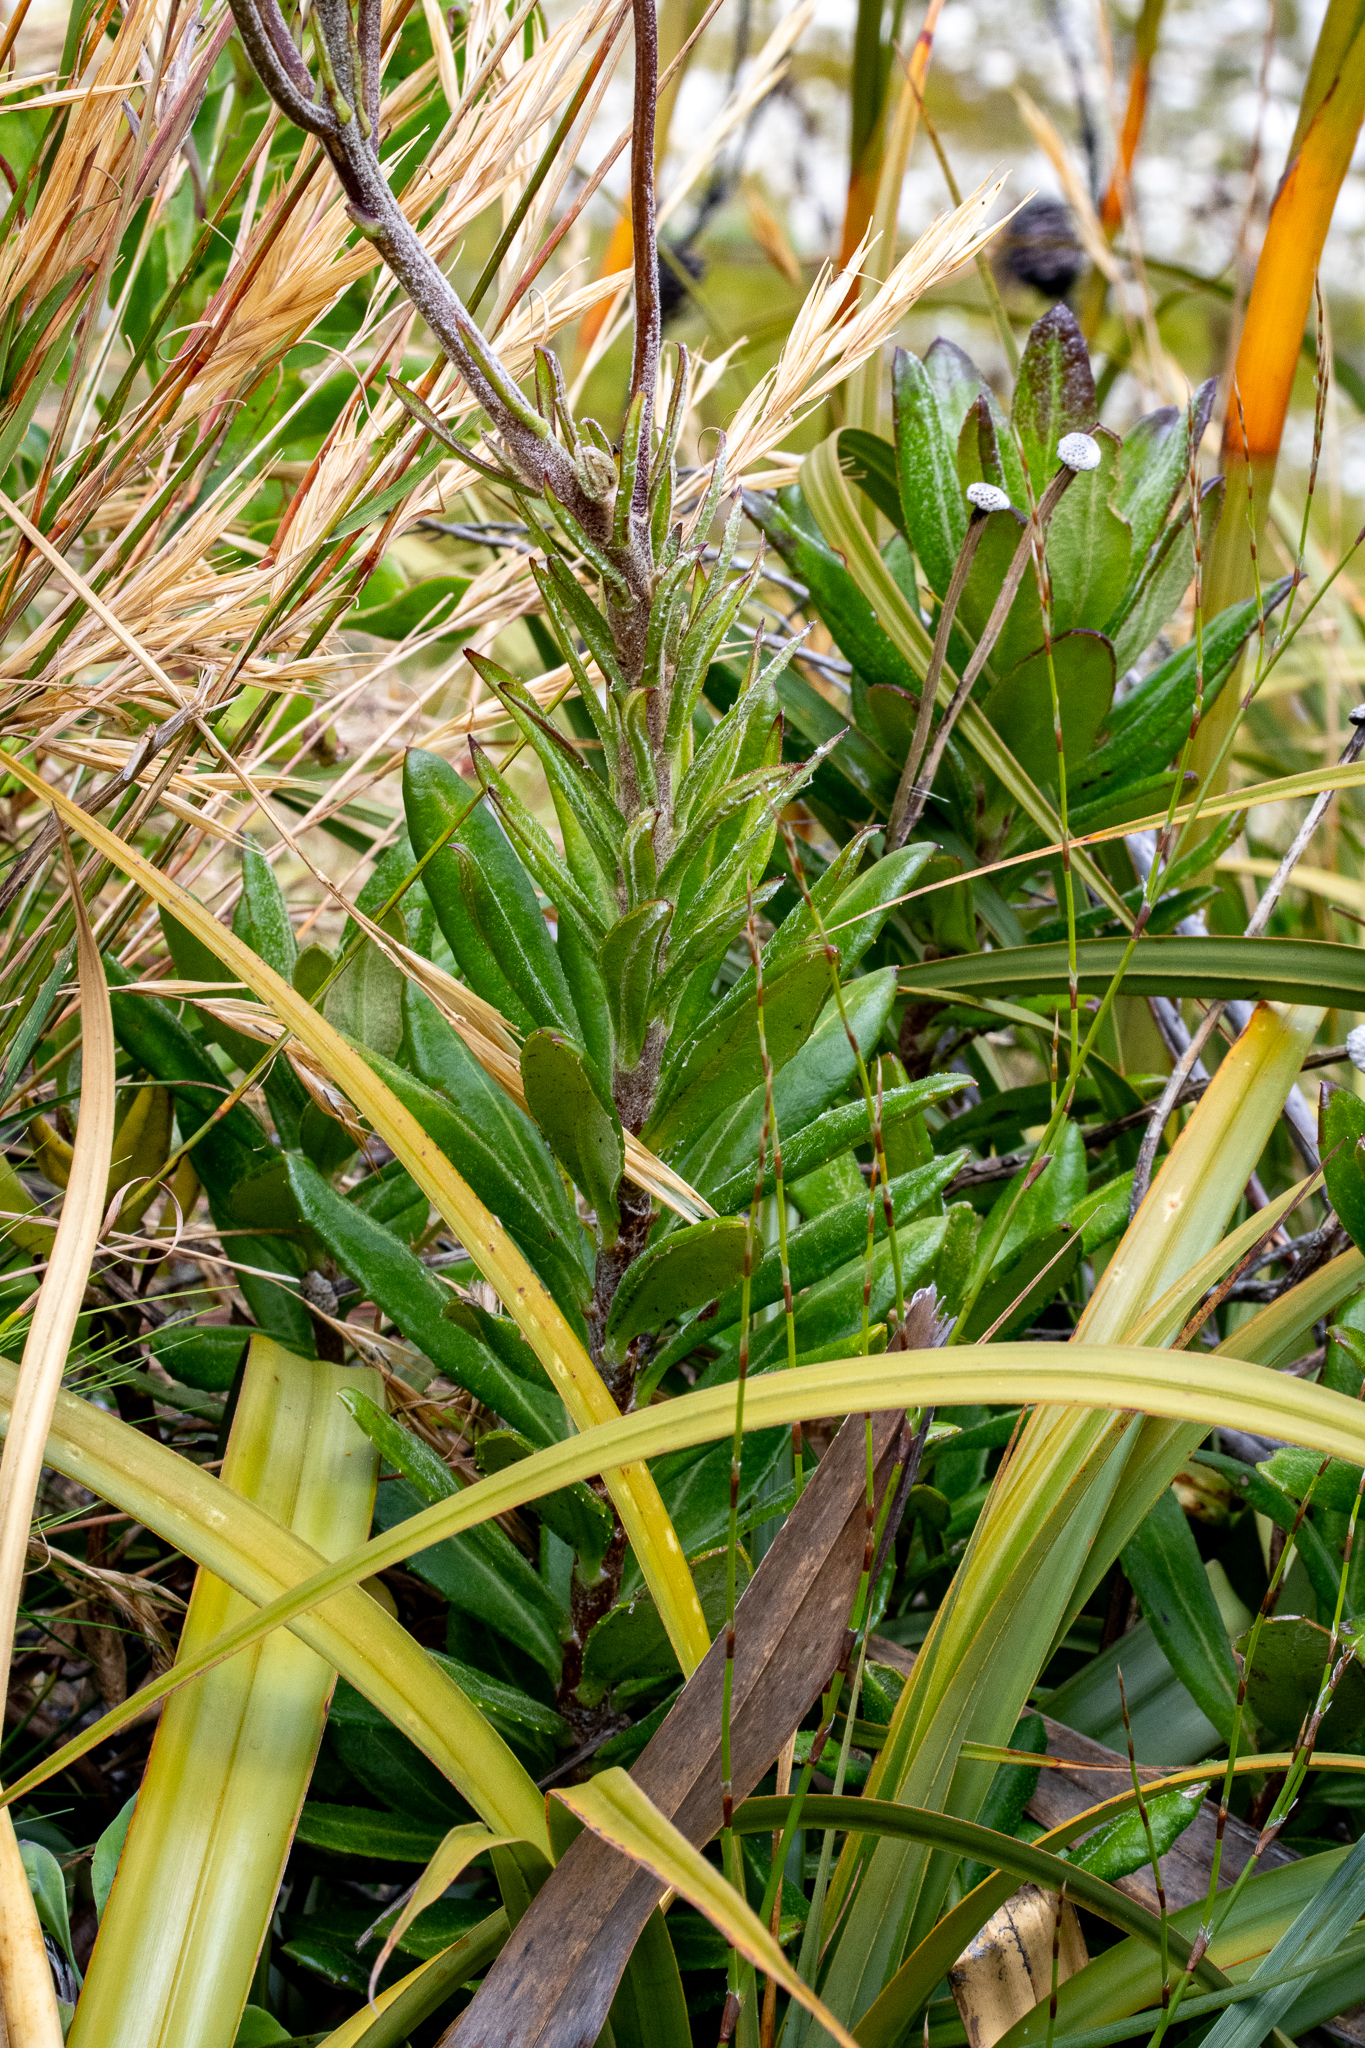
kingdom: Plantae
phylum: Tracheophyta
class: Magnoliopsida
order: Asterales
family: Asteraceae
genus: Capelio
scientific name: Capelio tabularis
